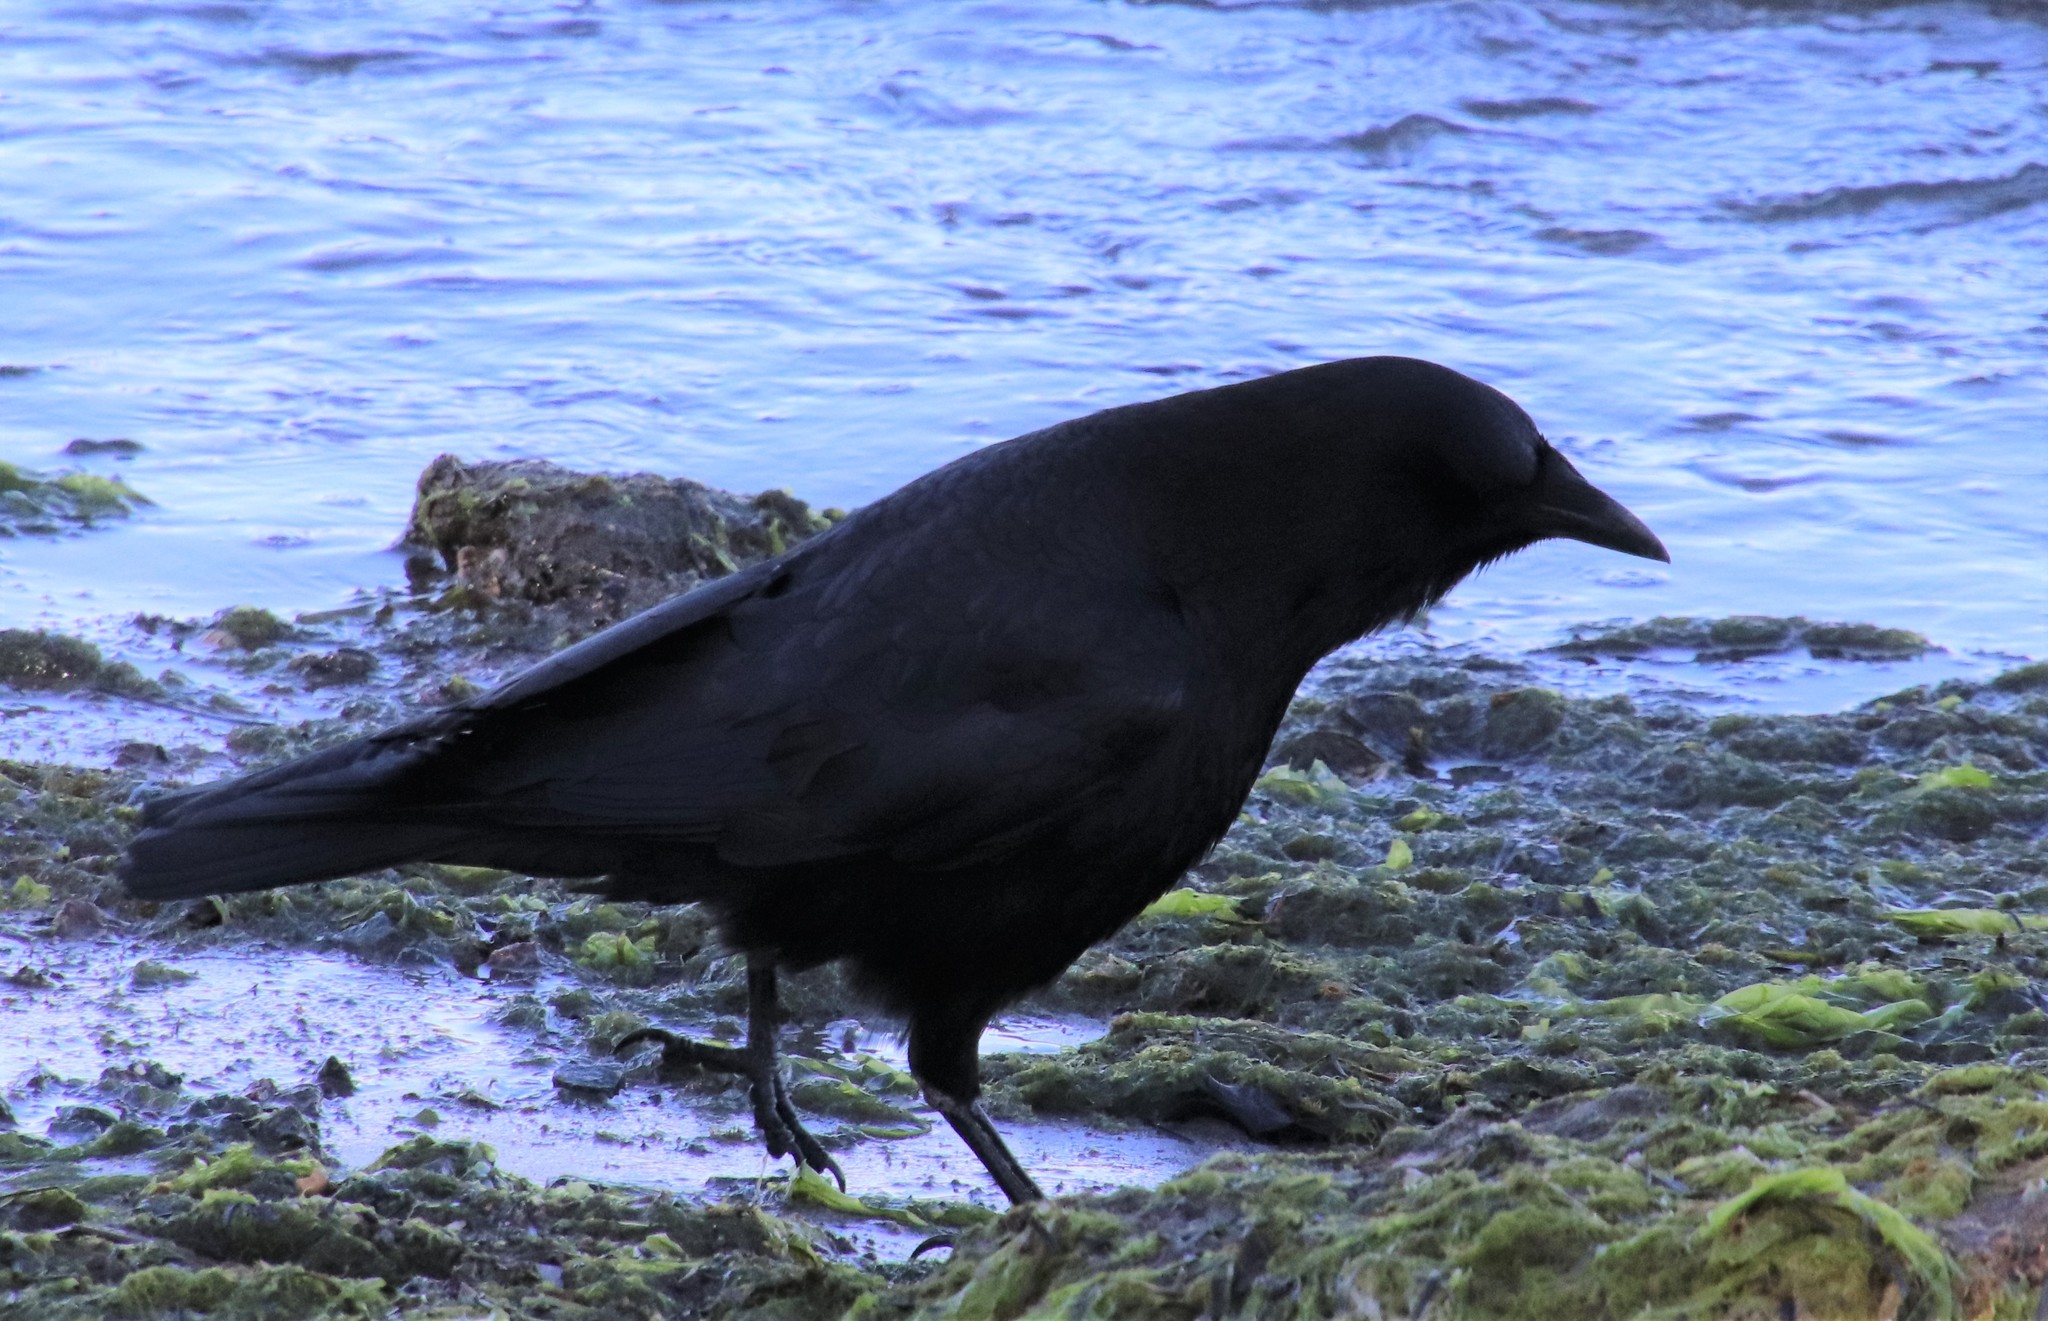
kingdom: Animalia
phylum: Chordata
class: Aves
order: Passeriformes
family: Corvidae
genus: Corvus
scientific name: Corvus brachyrhynchos
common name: American crow
